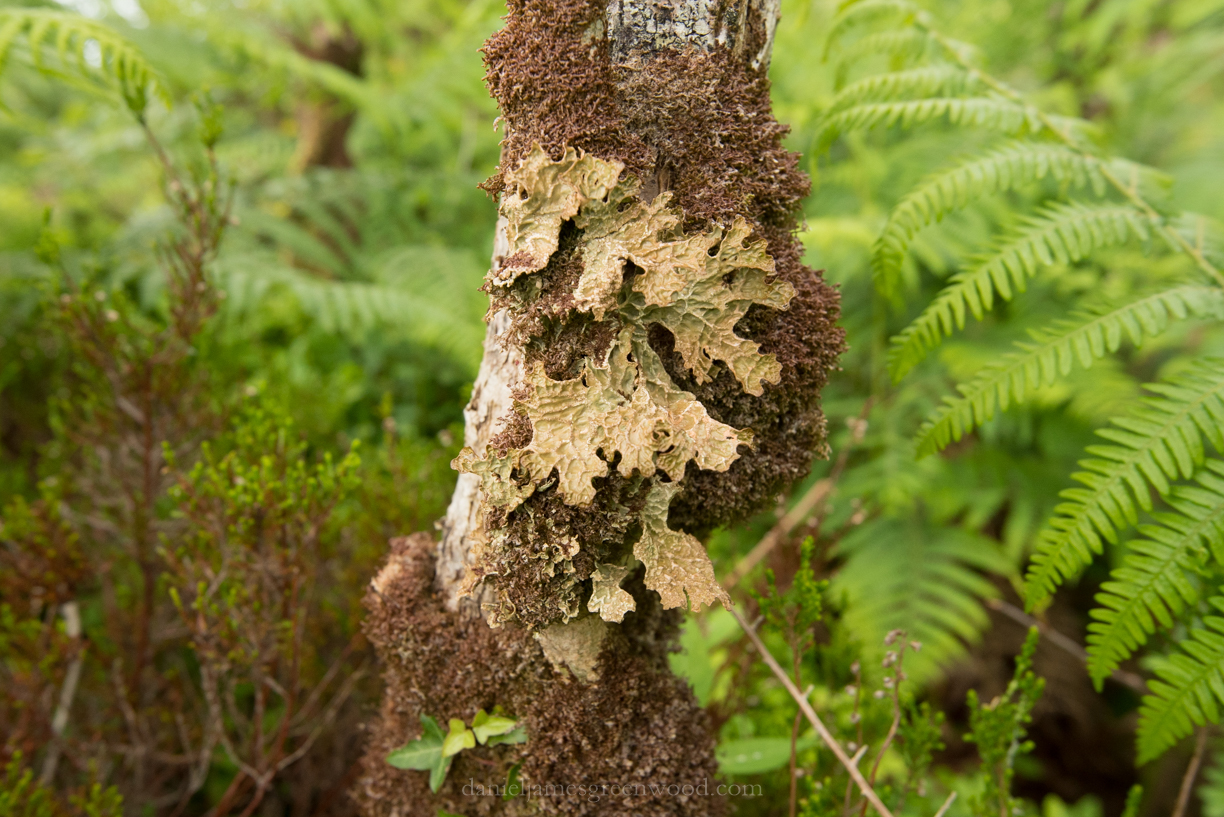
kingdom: Fungi
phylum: Ascomycota
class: Lecanoromycetes
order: Peltigerales
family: Lobariaceae
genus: Lobaria
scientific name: Lobaria pulmonaria
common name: Lungwort
